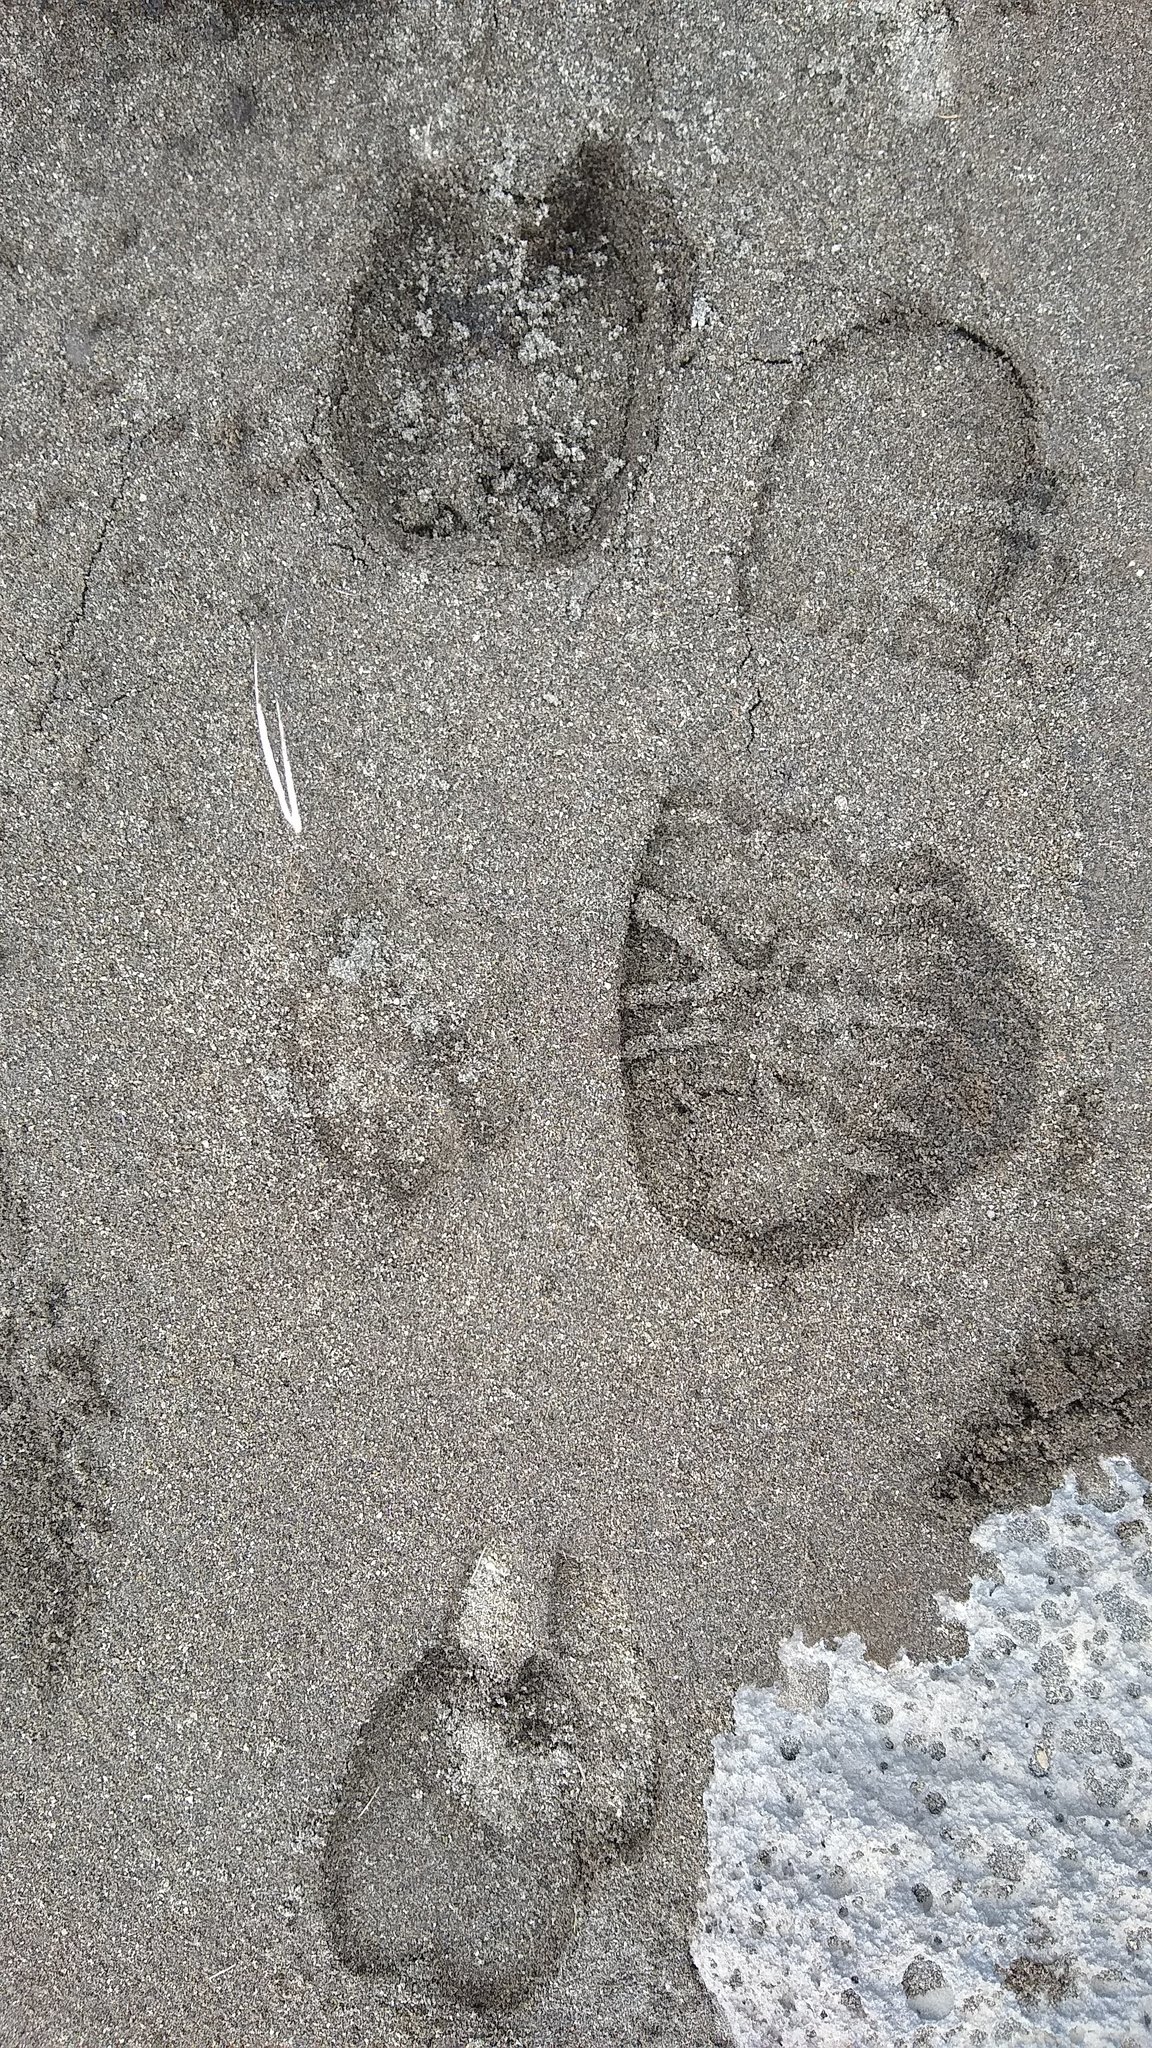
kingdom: Animalia
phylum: Chordata
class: Mammalia
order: Carnivora
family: Felidae
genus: Puma
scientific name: Puma concolor
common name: Puma
